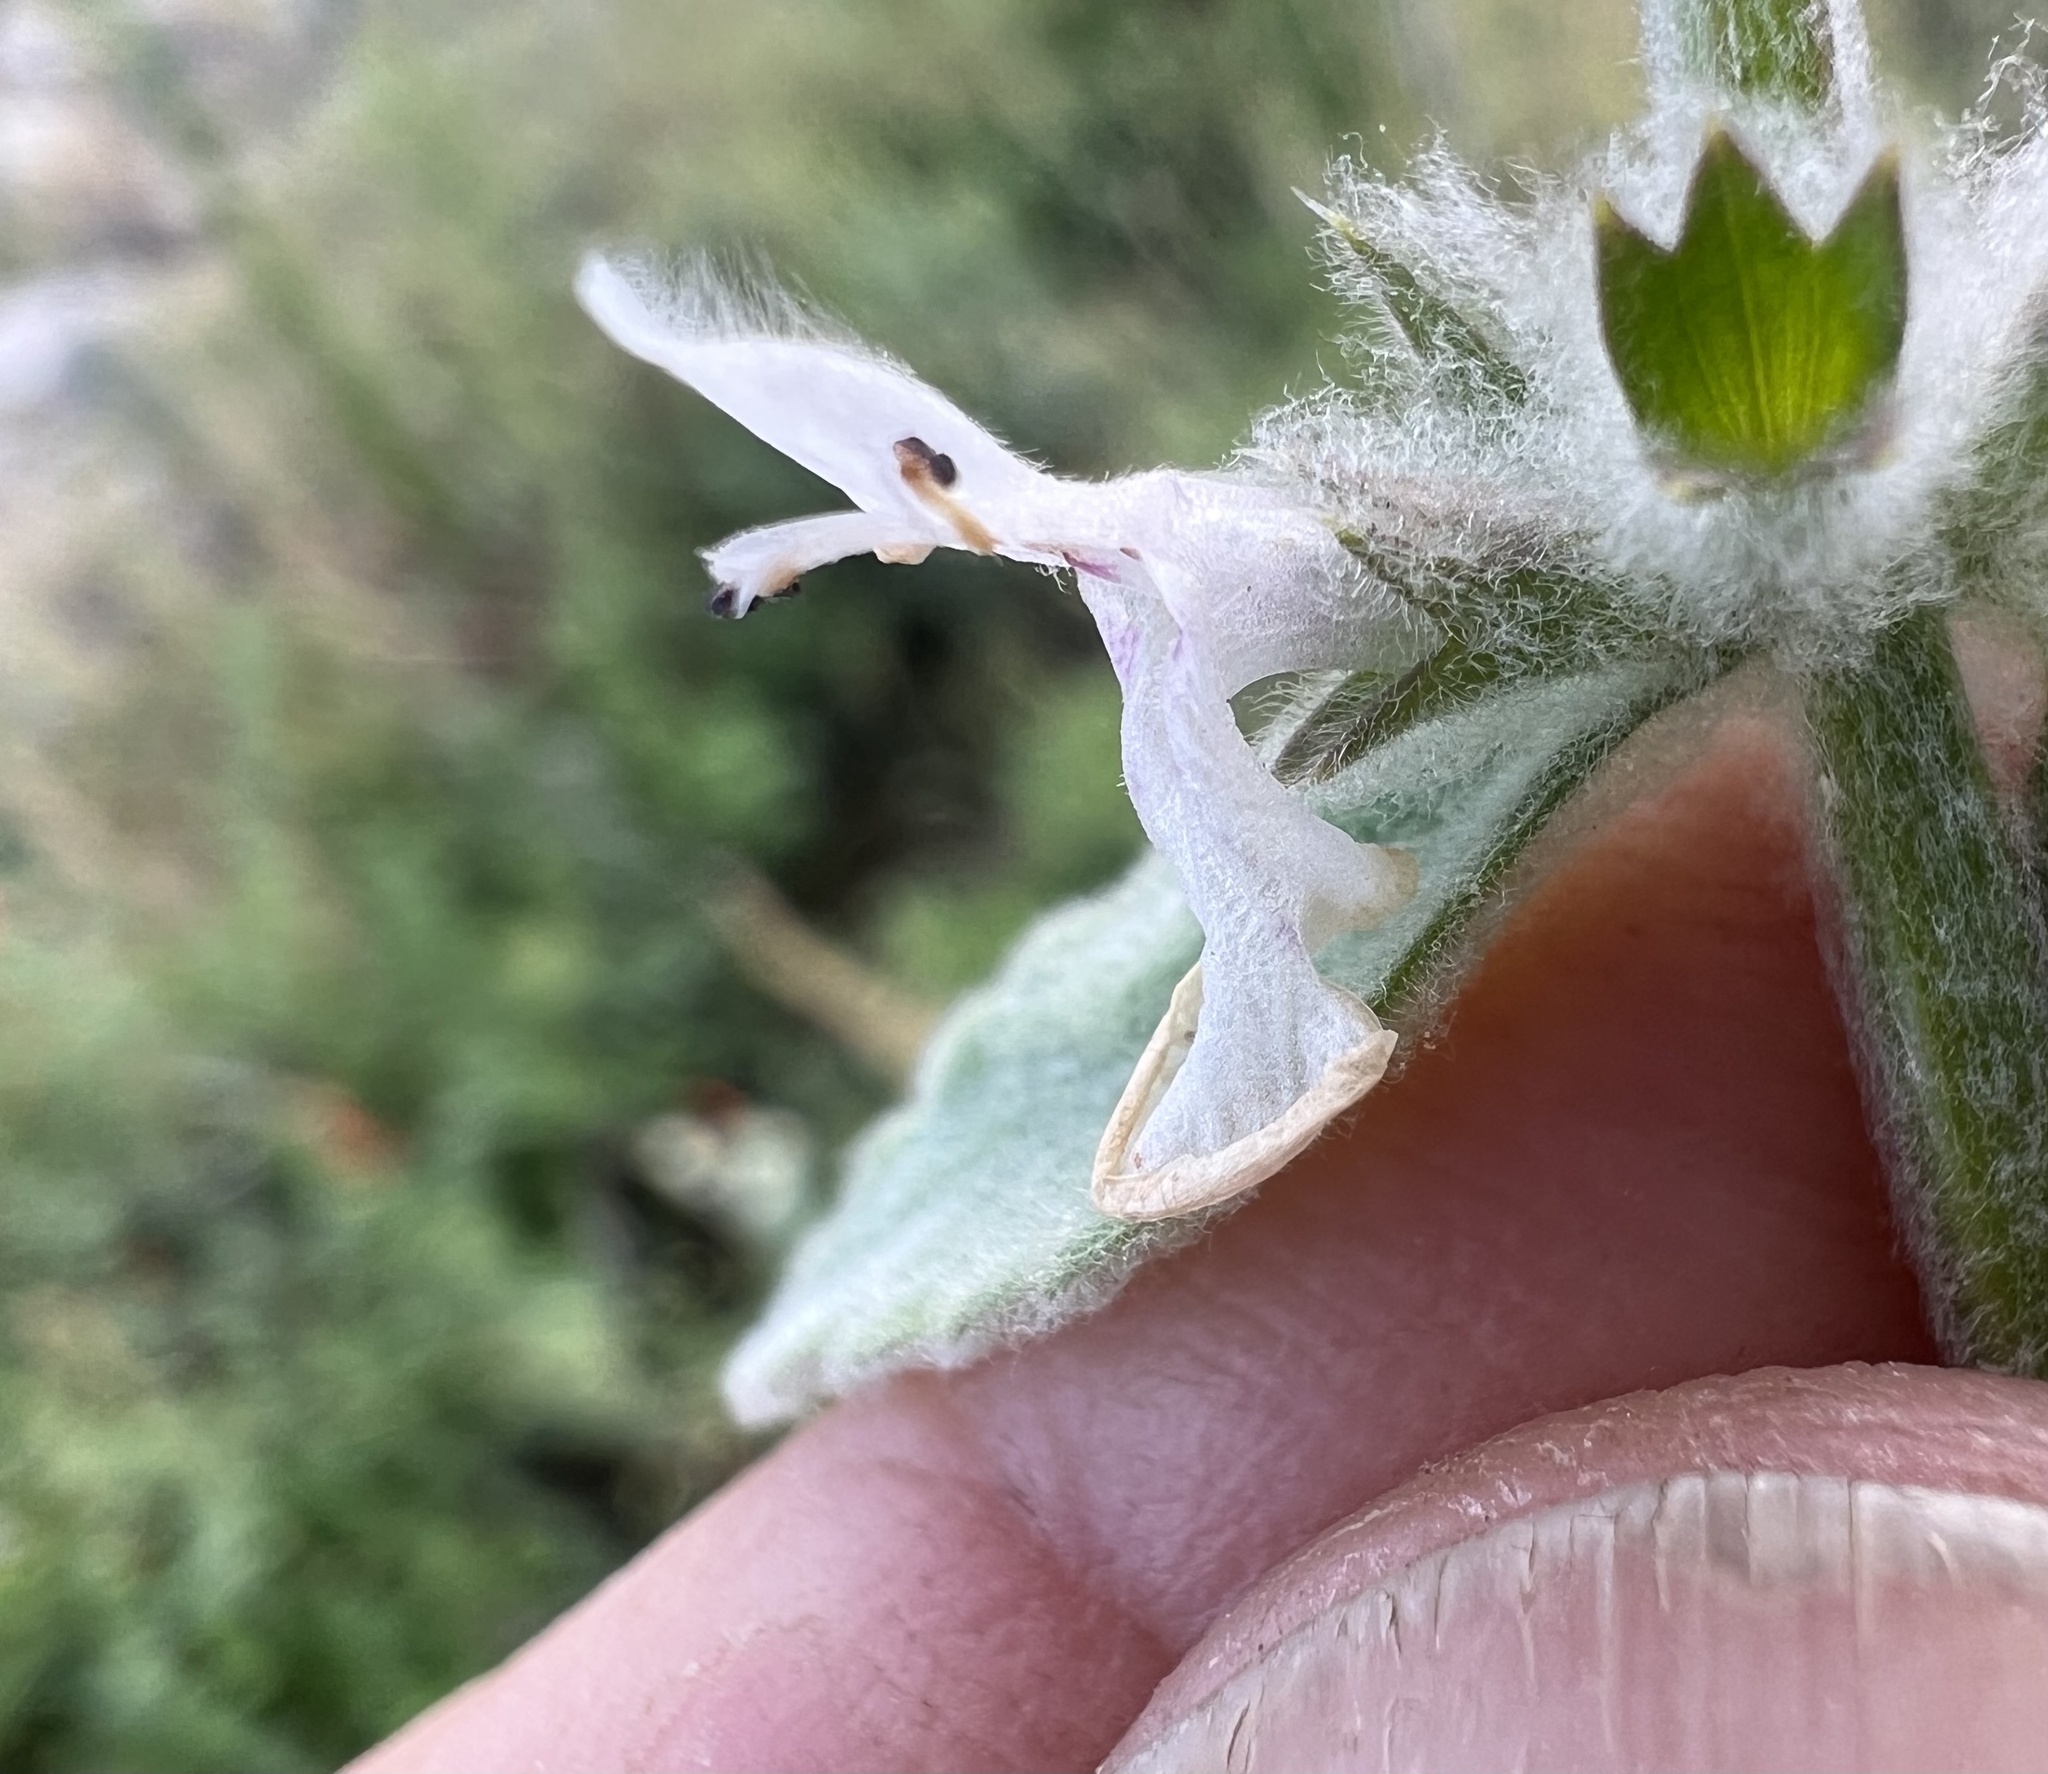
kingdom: Plantae
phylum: Tracheophyta
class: Magnoliopsida
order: Lamiales
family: Lamiaceae
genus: Stachys
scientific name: Stachys albens
